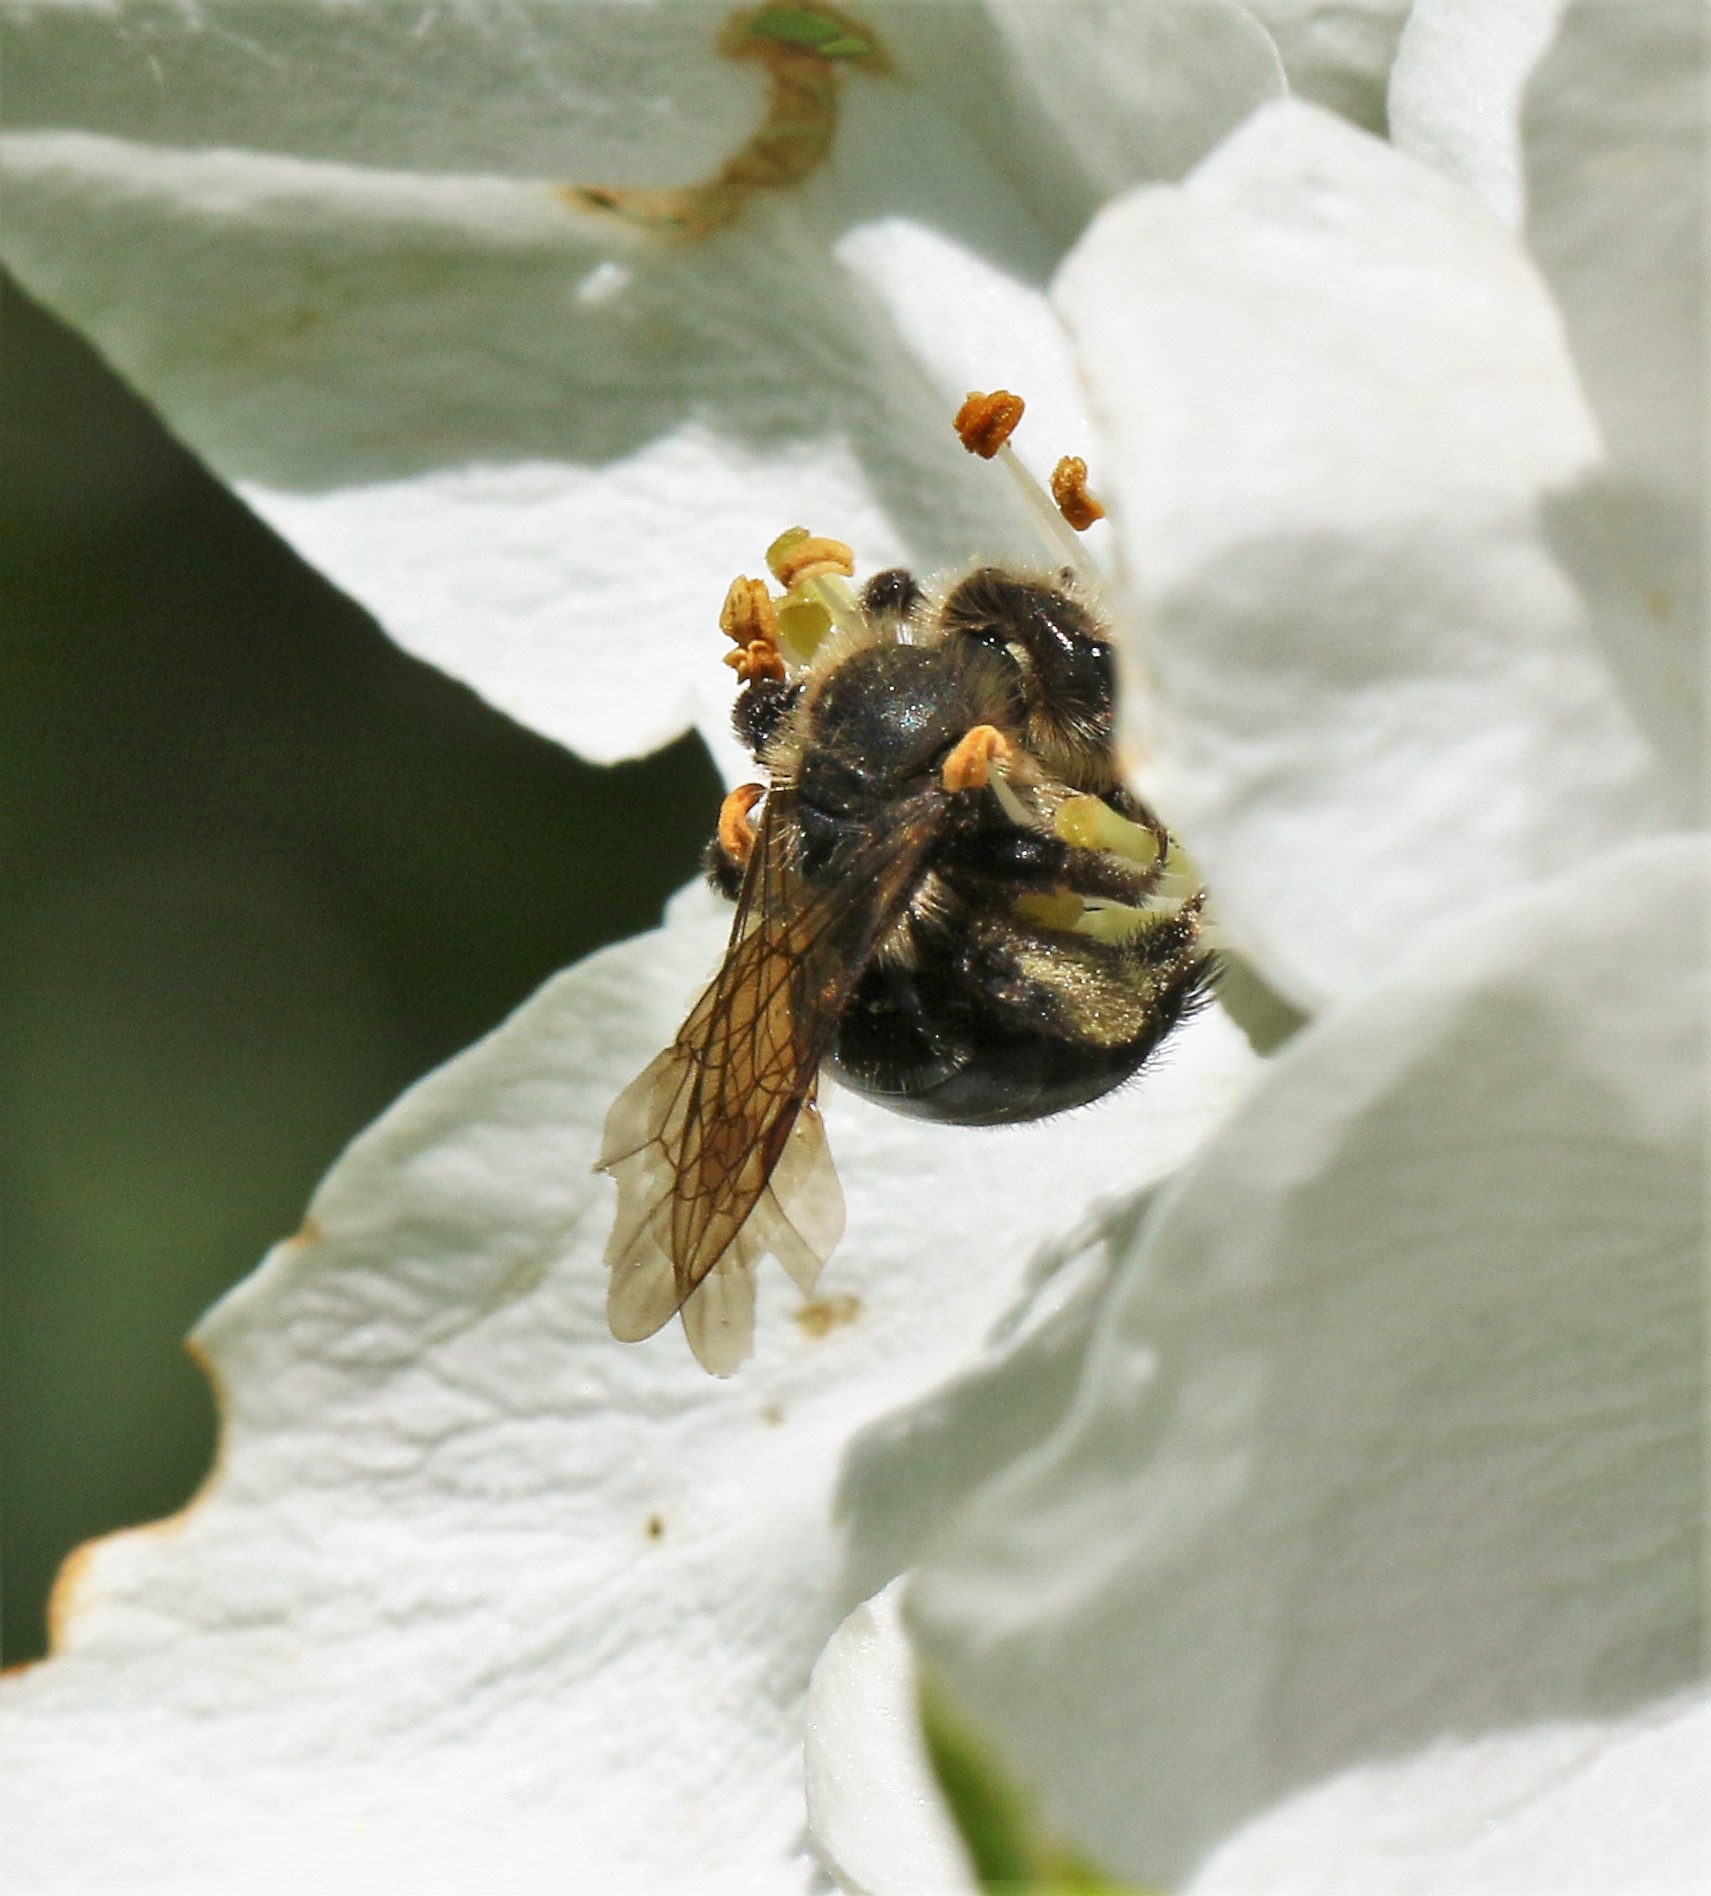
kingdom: Animalia
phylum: Arthropoda
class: Insecta
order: Hymenoptera
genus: Melandrena
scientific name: Melandrena
